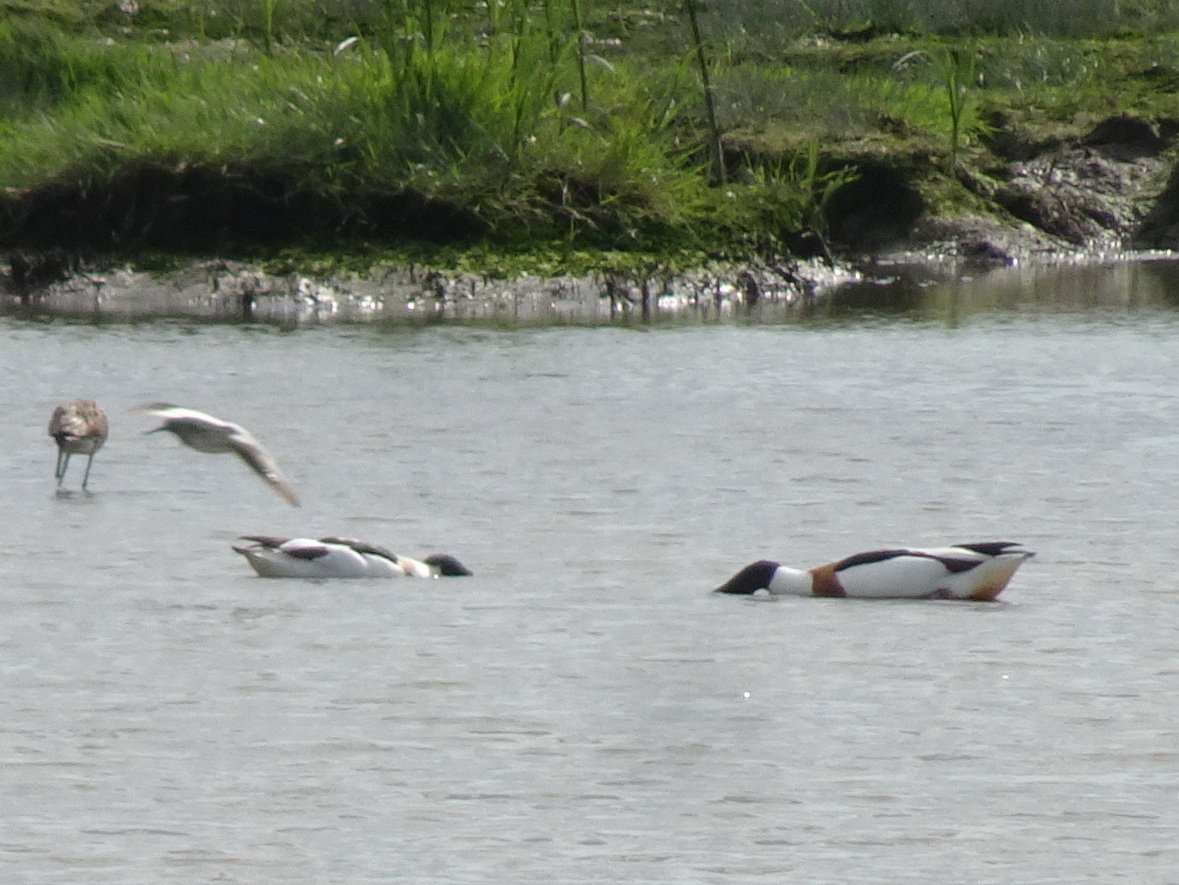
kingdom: Animalia
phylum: Chordata
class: Aves
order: Anseriformes
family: Anatidae
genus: Tadorna
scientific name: Tadorna tadorna
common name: Common shelduck
